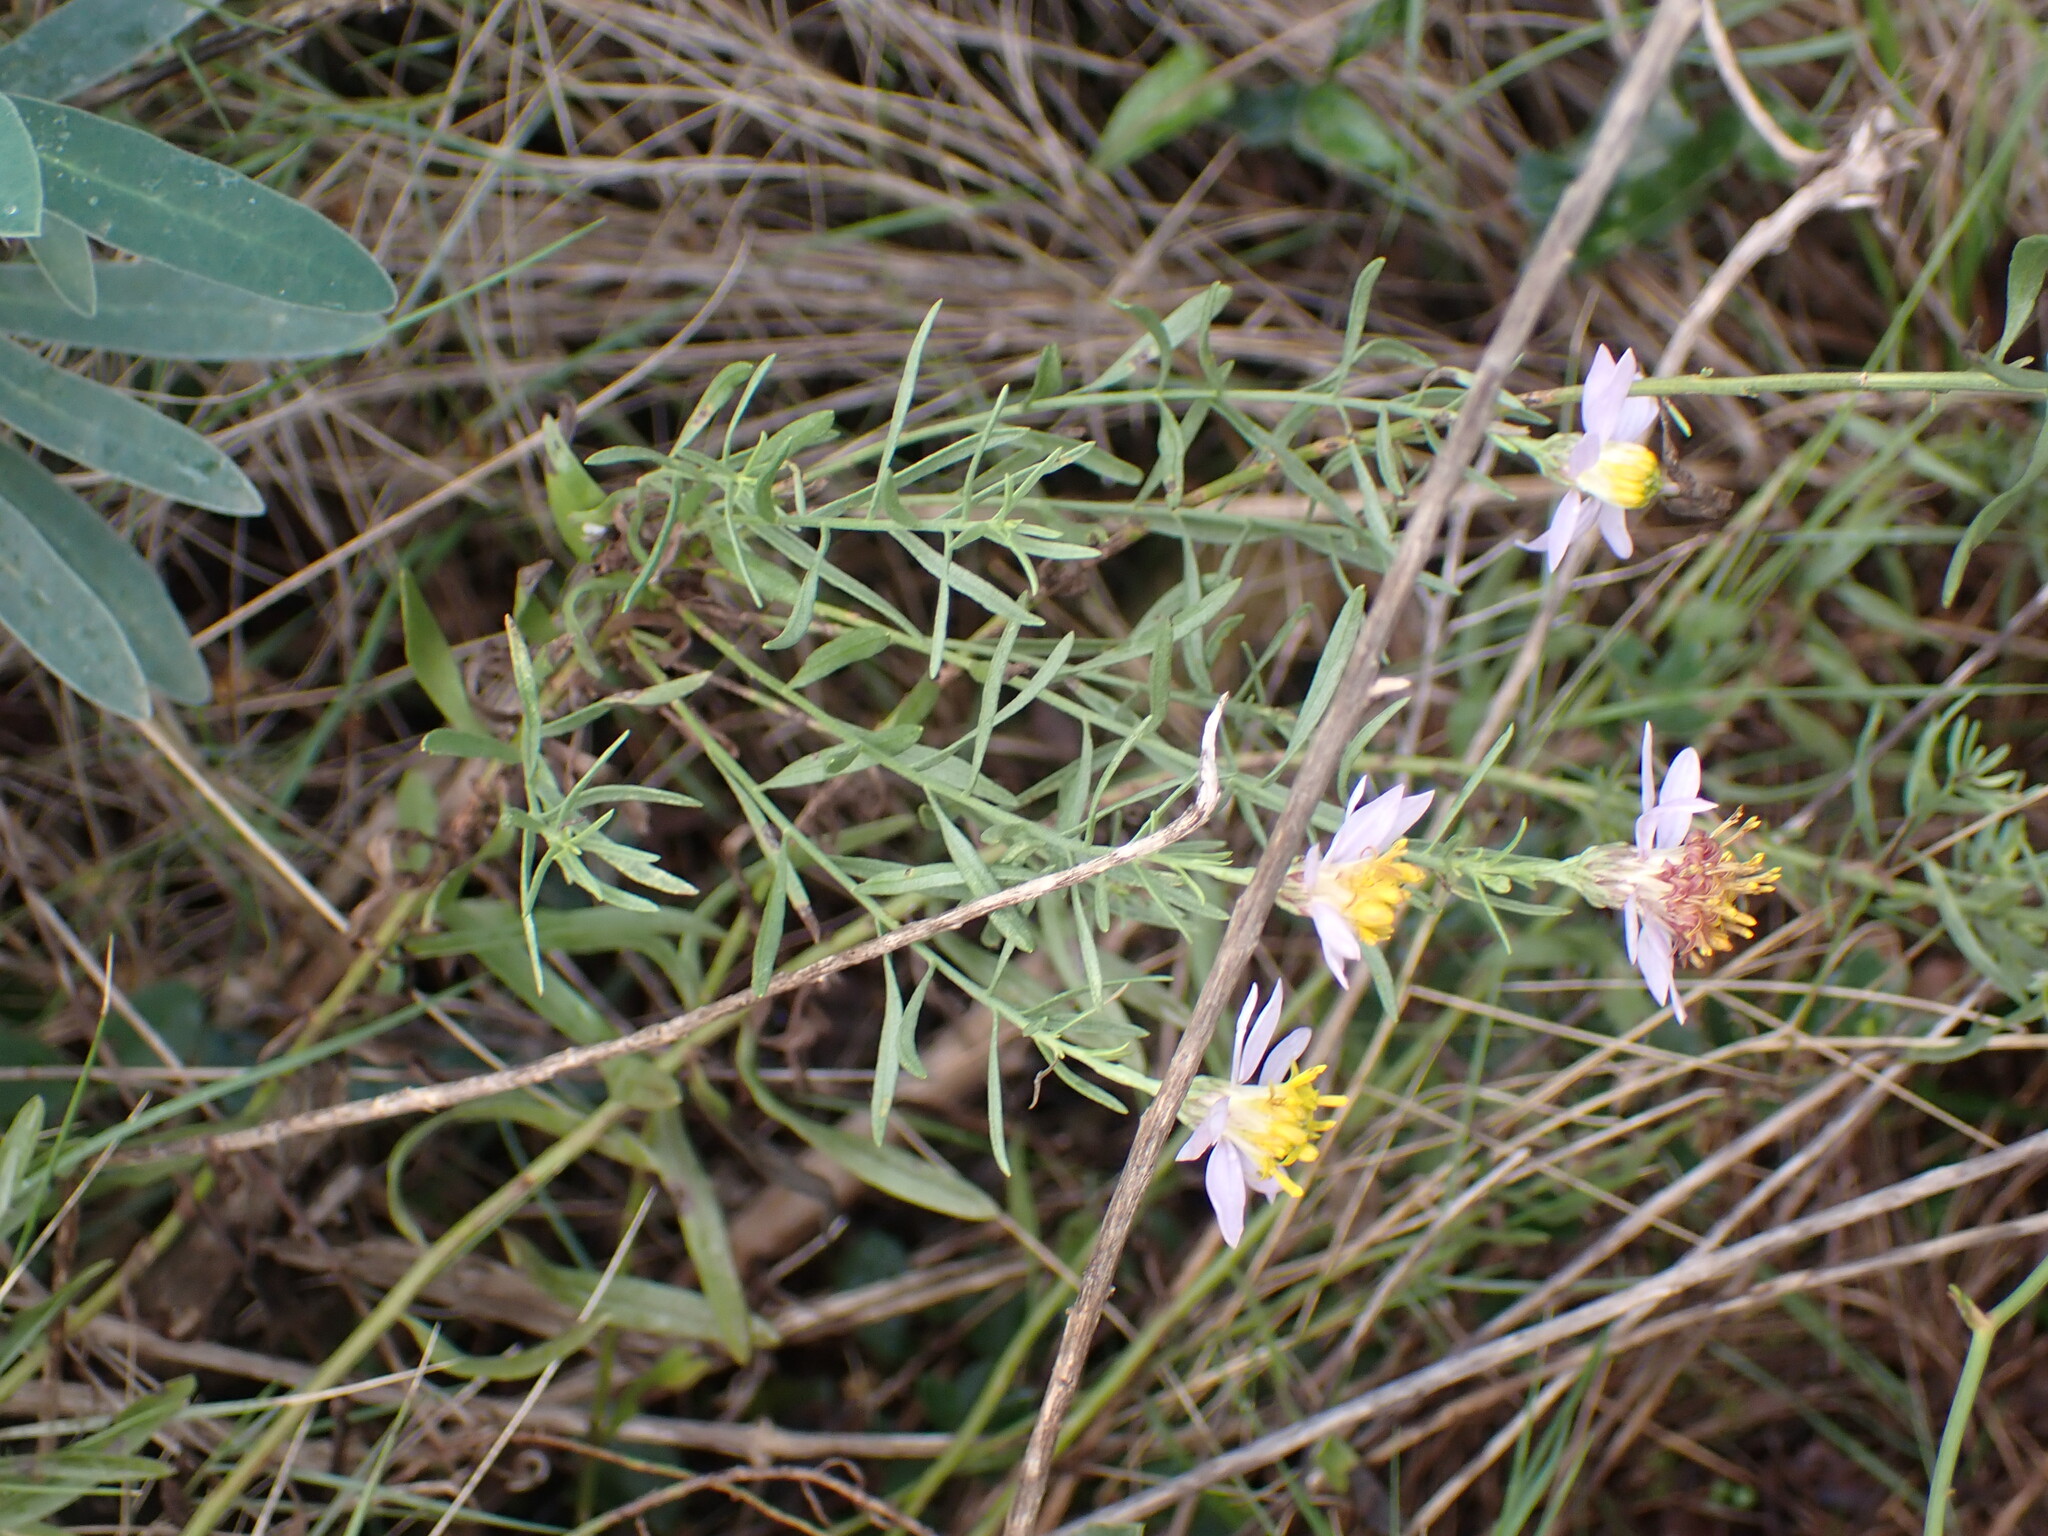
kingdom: Plantae
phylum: Tracheophyta
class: Magnoliopsida
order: Asterales
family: Asteraceae
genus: Galatella
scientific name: Galatella sedifolia
